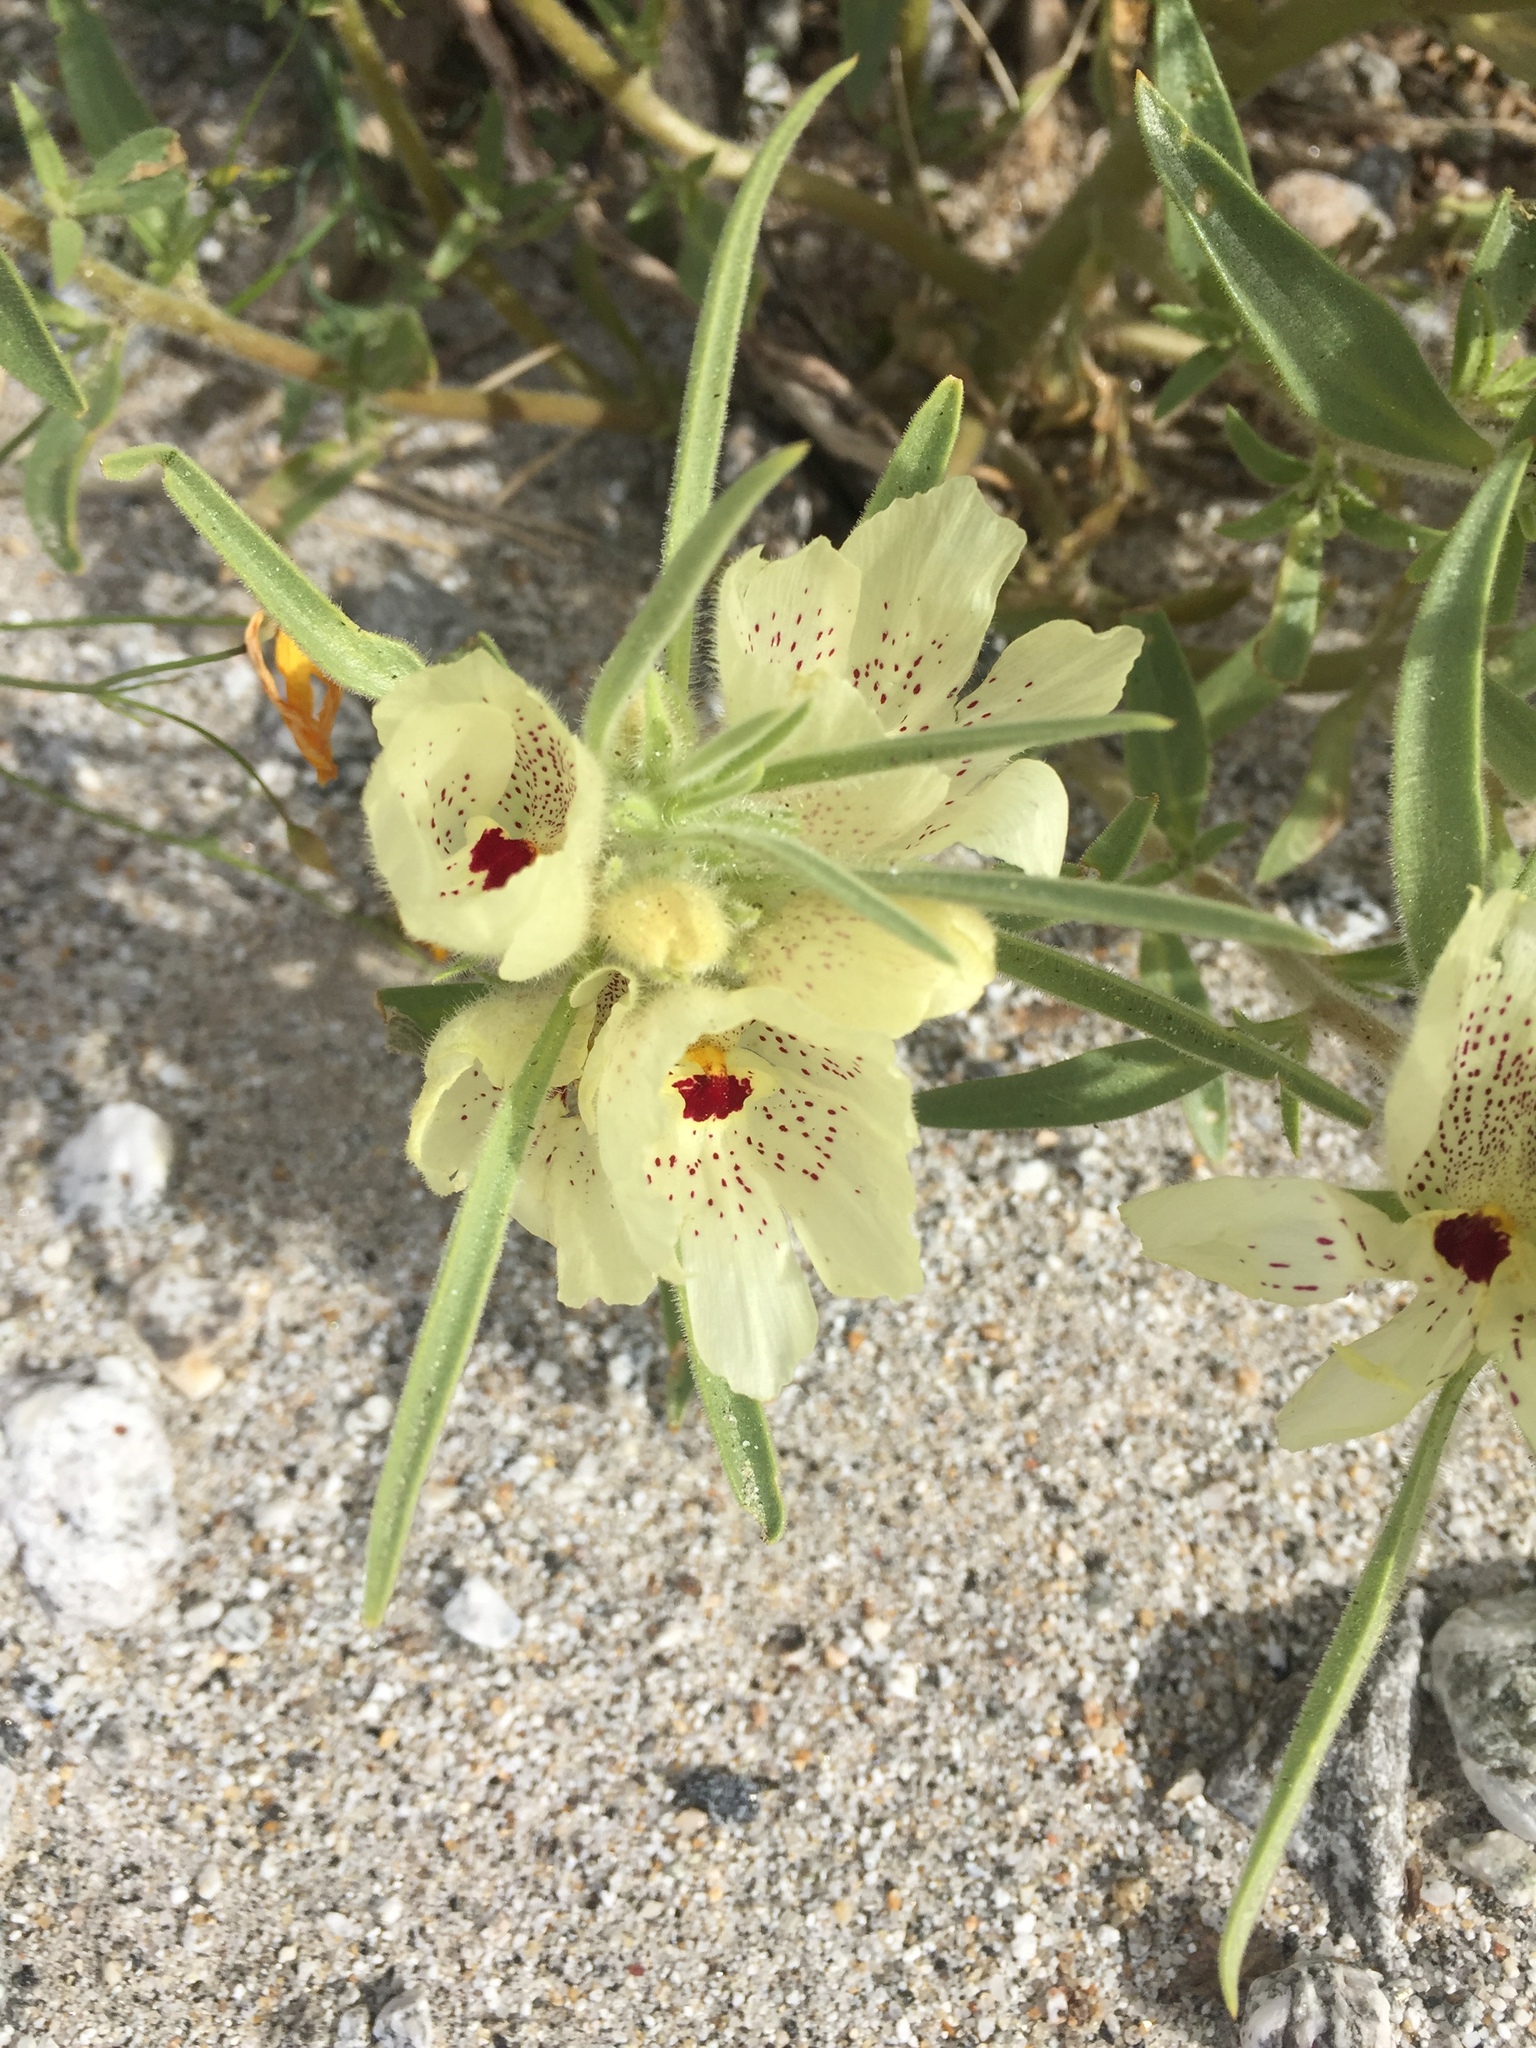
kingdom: Plantae
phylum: Tracheophyta
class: Magnoliopsida
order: Lamiales
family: Plantaginaceae
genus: Mohavea
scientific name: Mohavea confertiflora
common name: Ghost flower
